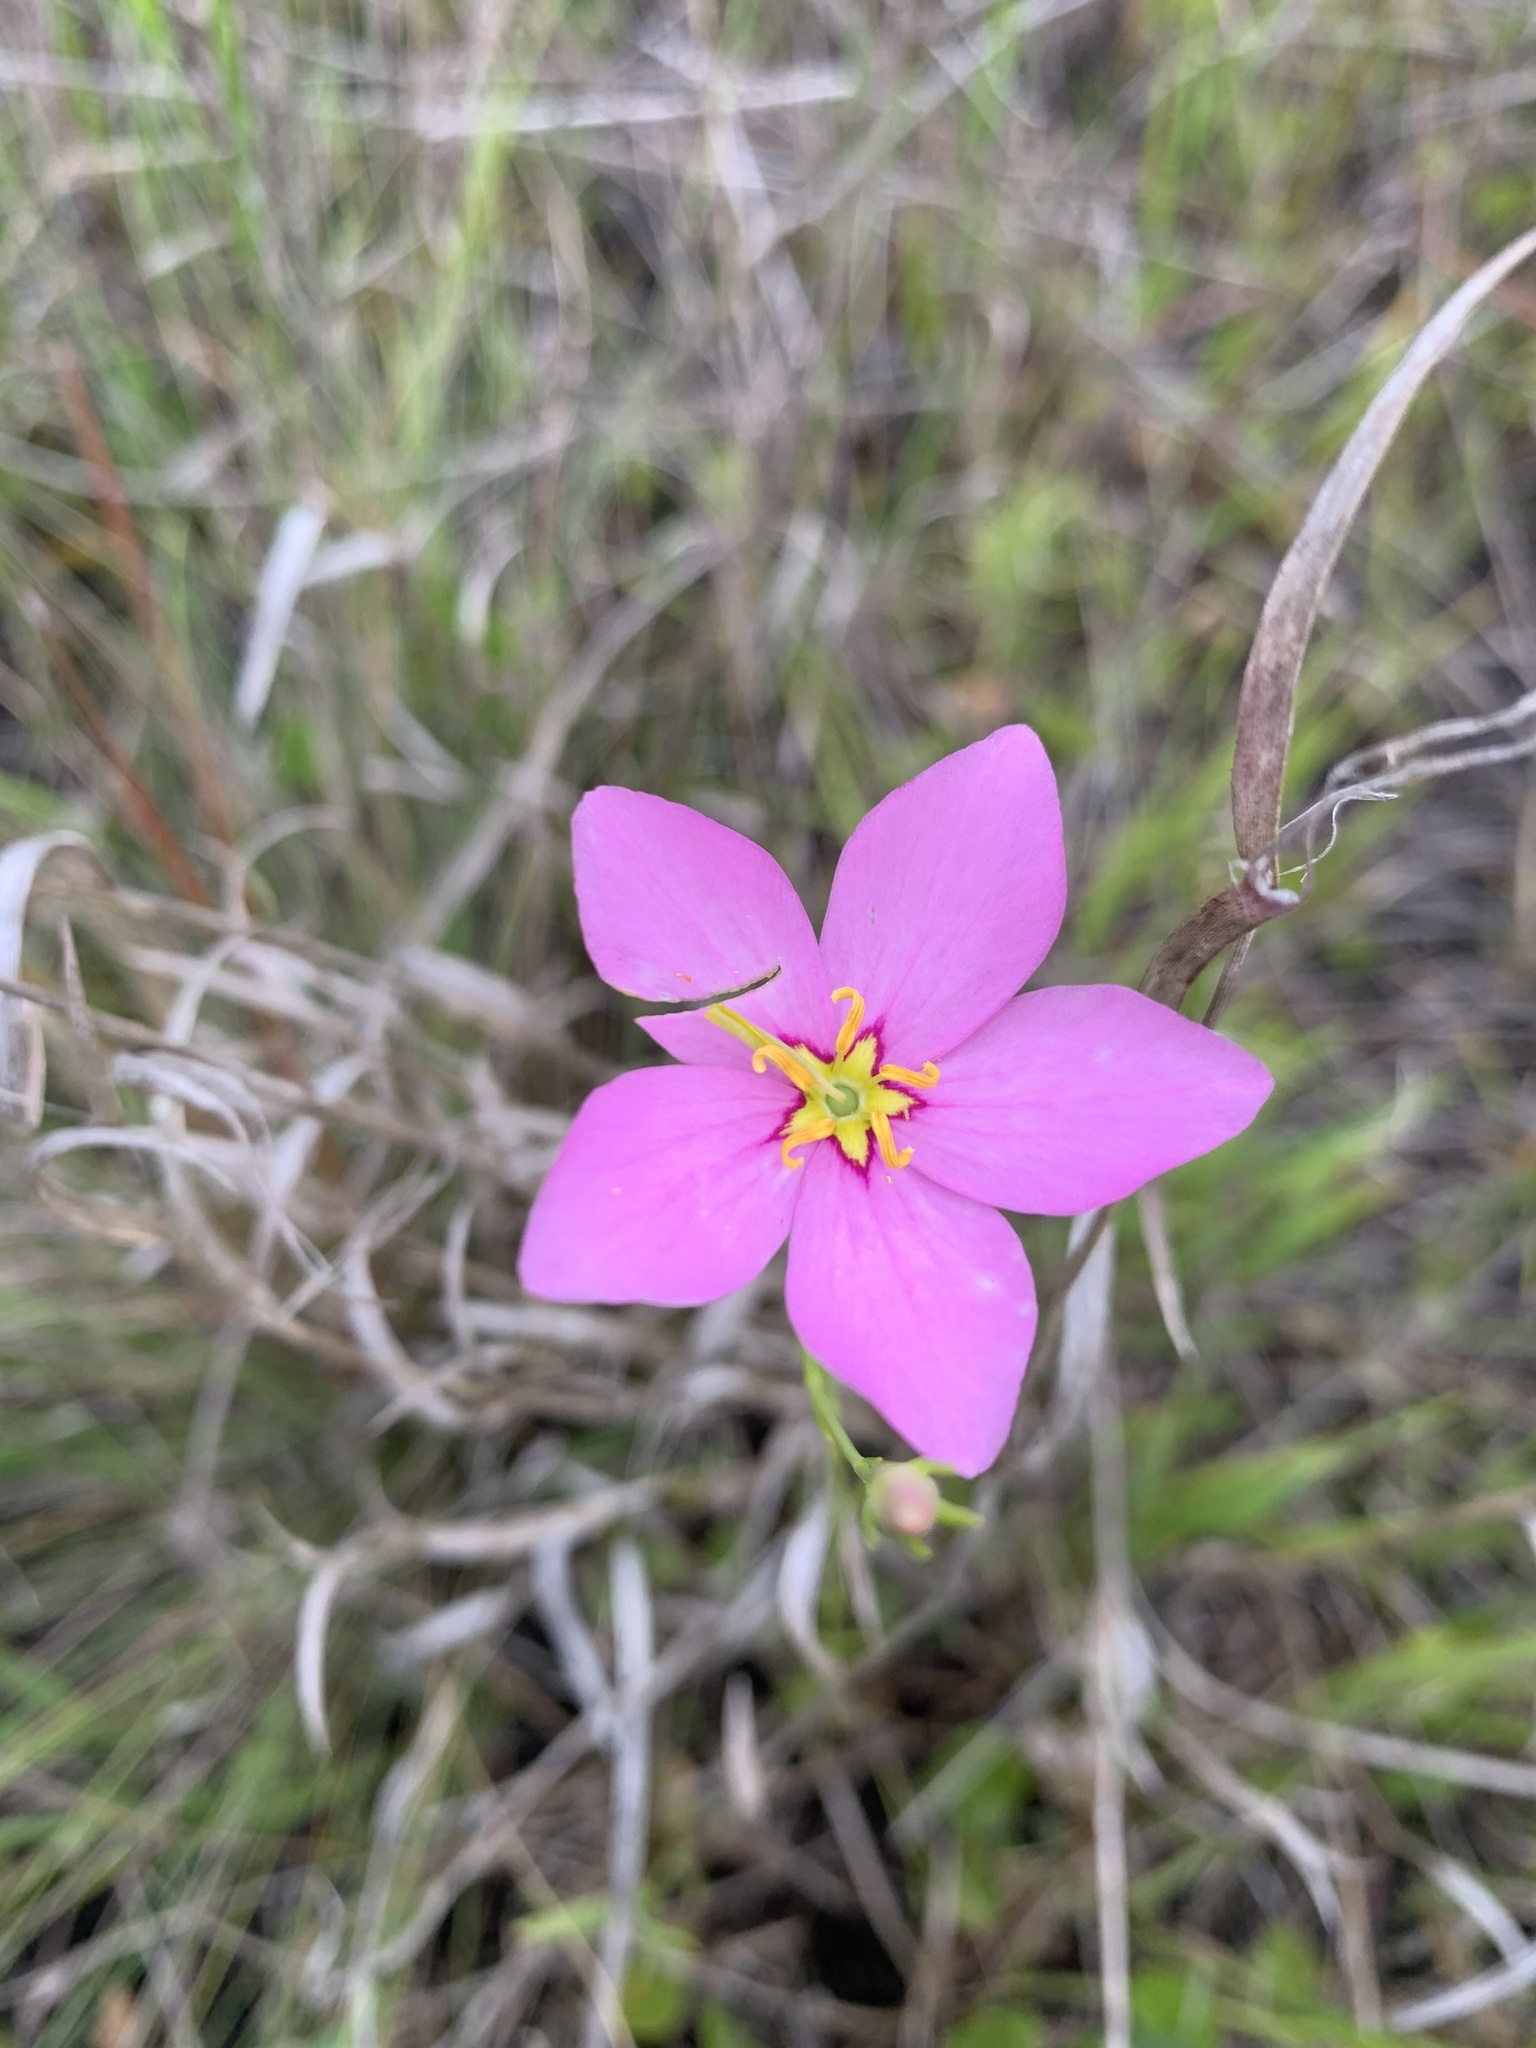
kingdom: Plantae
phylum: Tracheophyta
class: Magnoliopsida
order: Gentianales
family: Gentianaceae
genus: Sabatia
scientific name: Sabatia grandiflora
